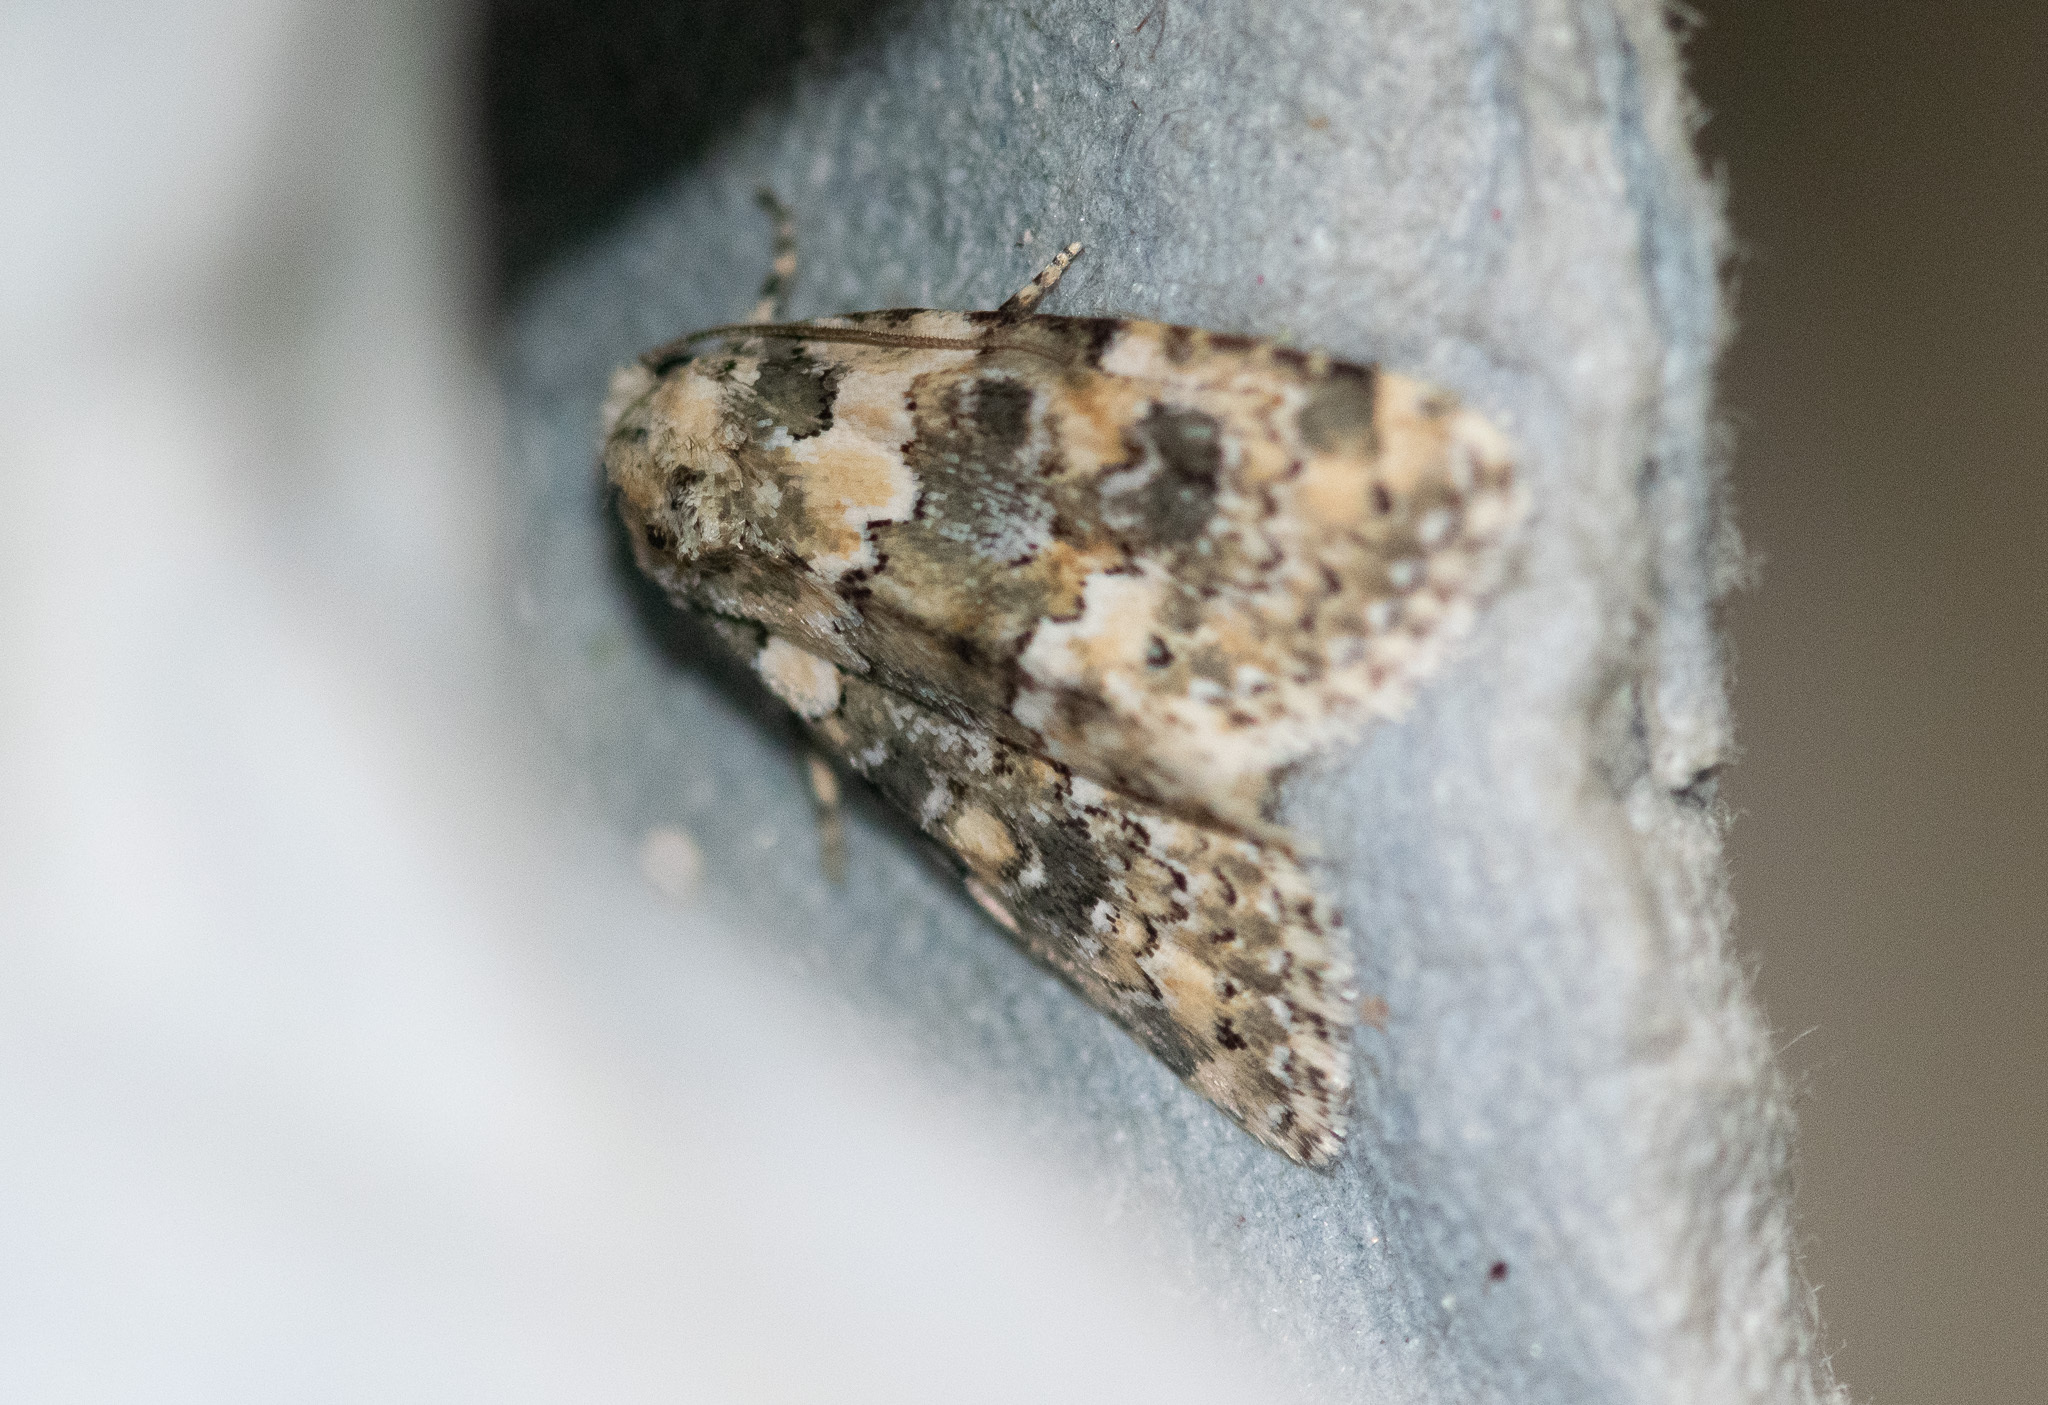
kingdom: Animalia
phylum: Arthropoda
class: Insecta
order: Lepidoptera
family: Noctuidae
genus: Bryophila
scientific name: Bryophila domestica
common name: Marbled beauty
